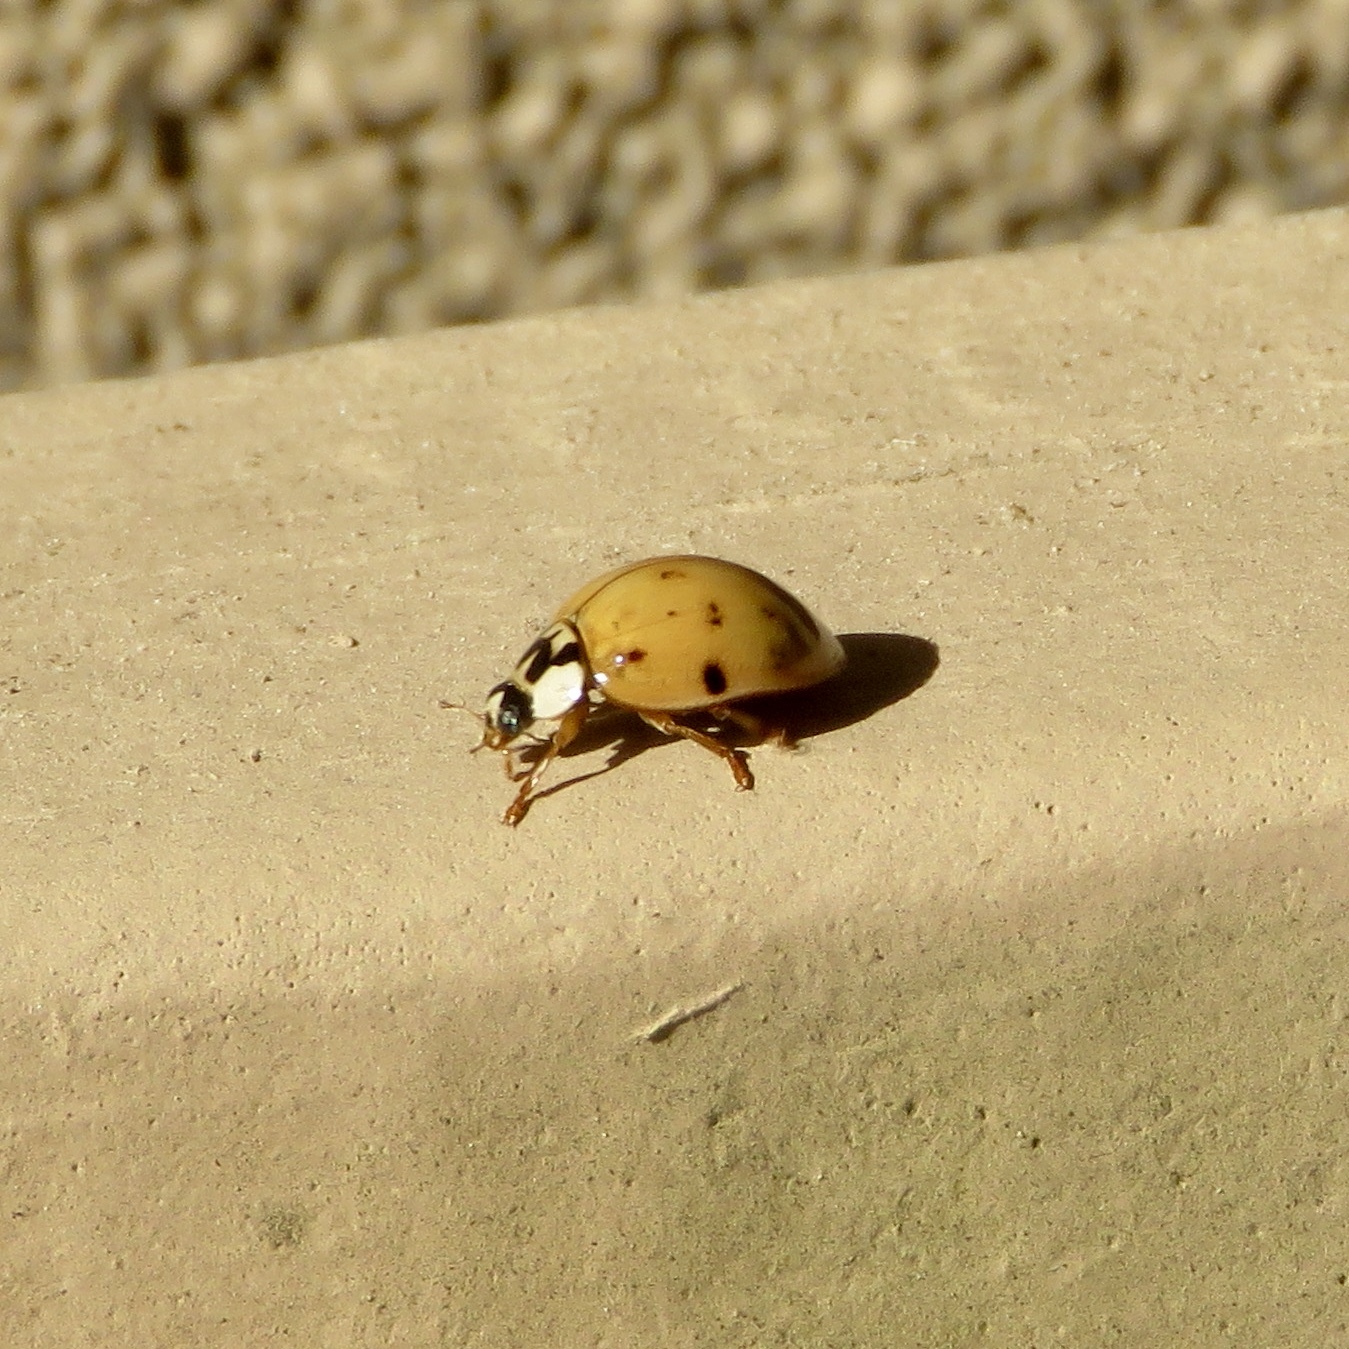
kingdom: Animalia
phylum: Arthropoda
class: Insecta
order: Coleoptera
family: Coccinellidae
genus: Harmonia
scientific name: Harmonia axyridis
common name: Harlequin ladybird
